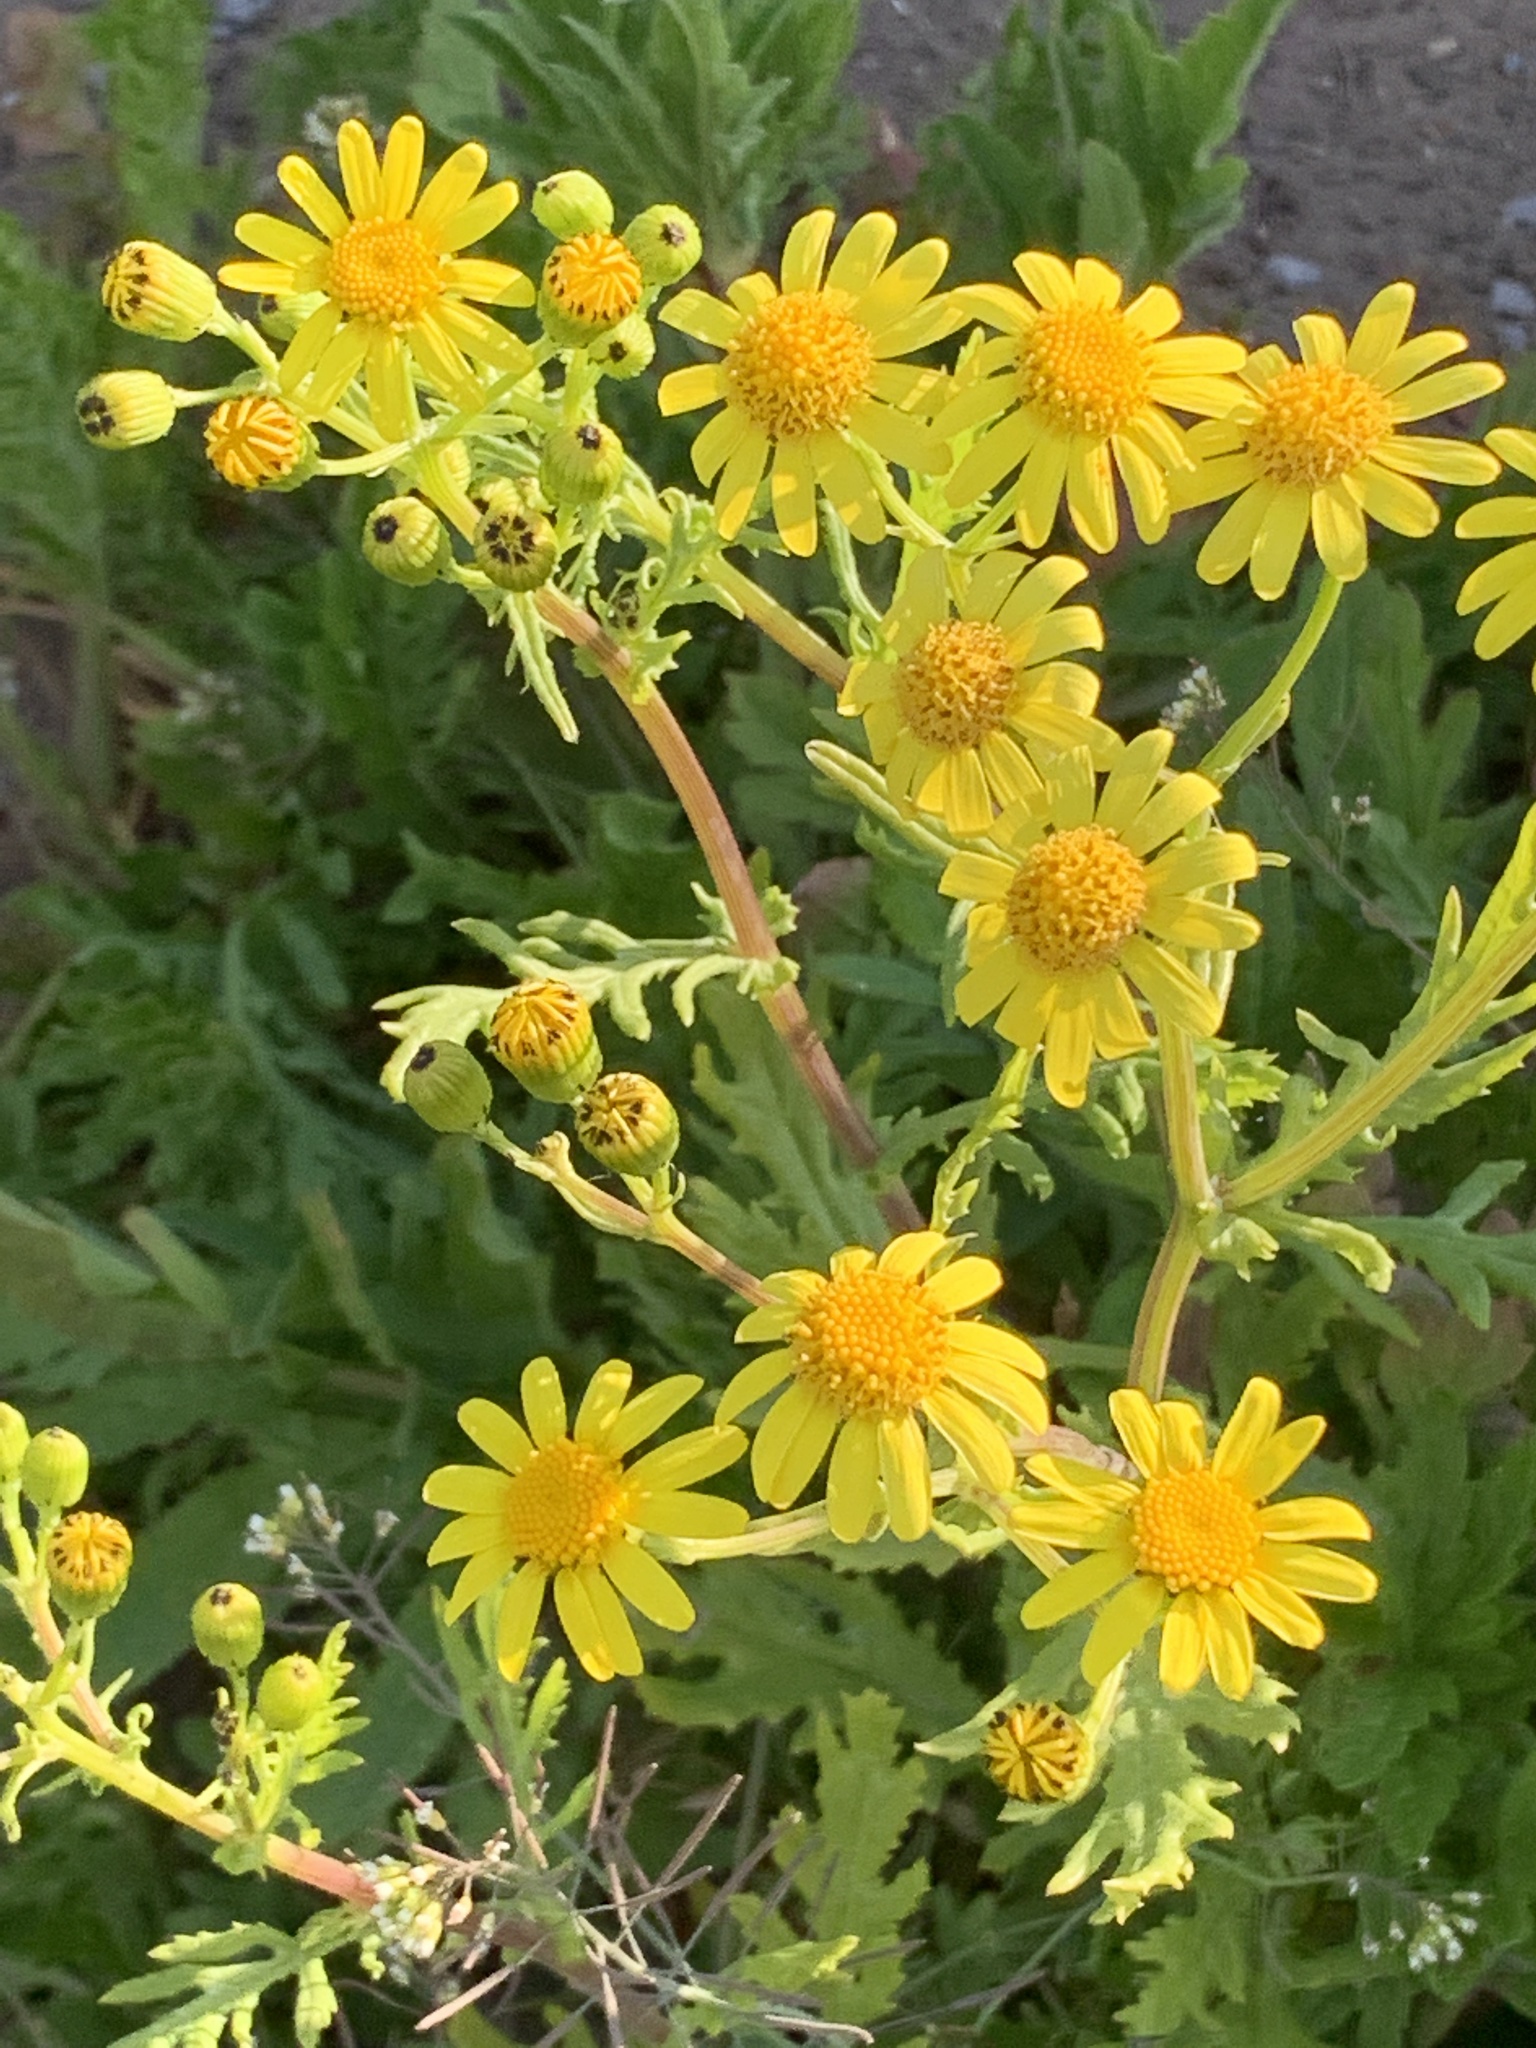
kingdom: Plantae
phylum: Tracheophyta
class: Magnoliopsida
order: Asterales
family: Asteraceae
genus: Senecio
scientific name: Senecio squalidus
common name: Oxford ragwort
